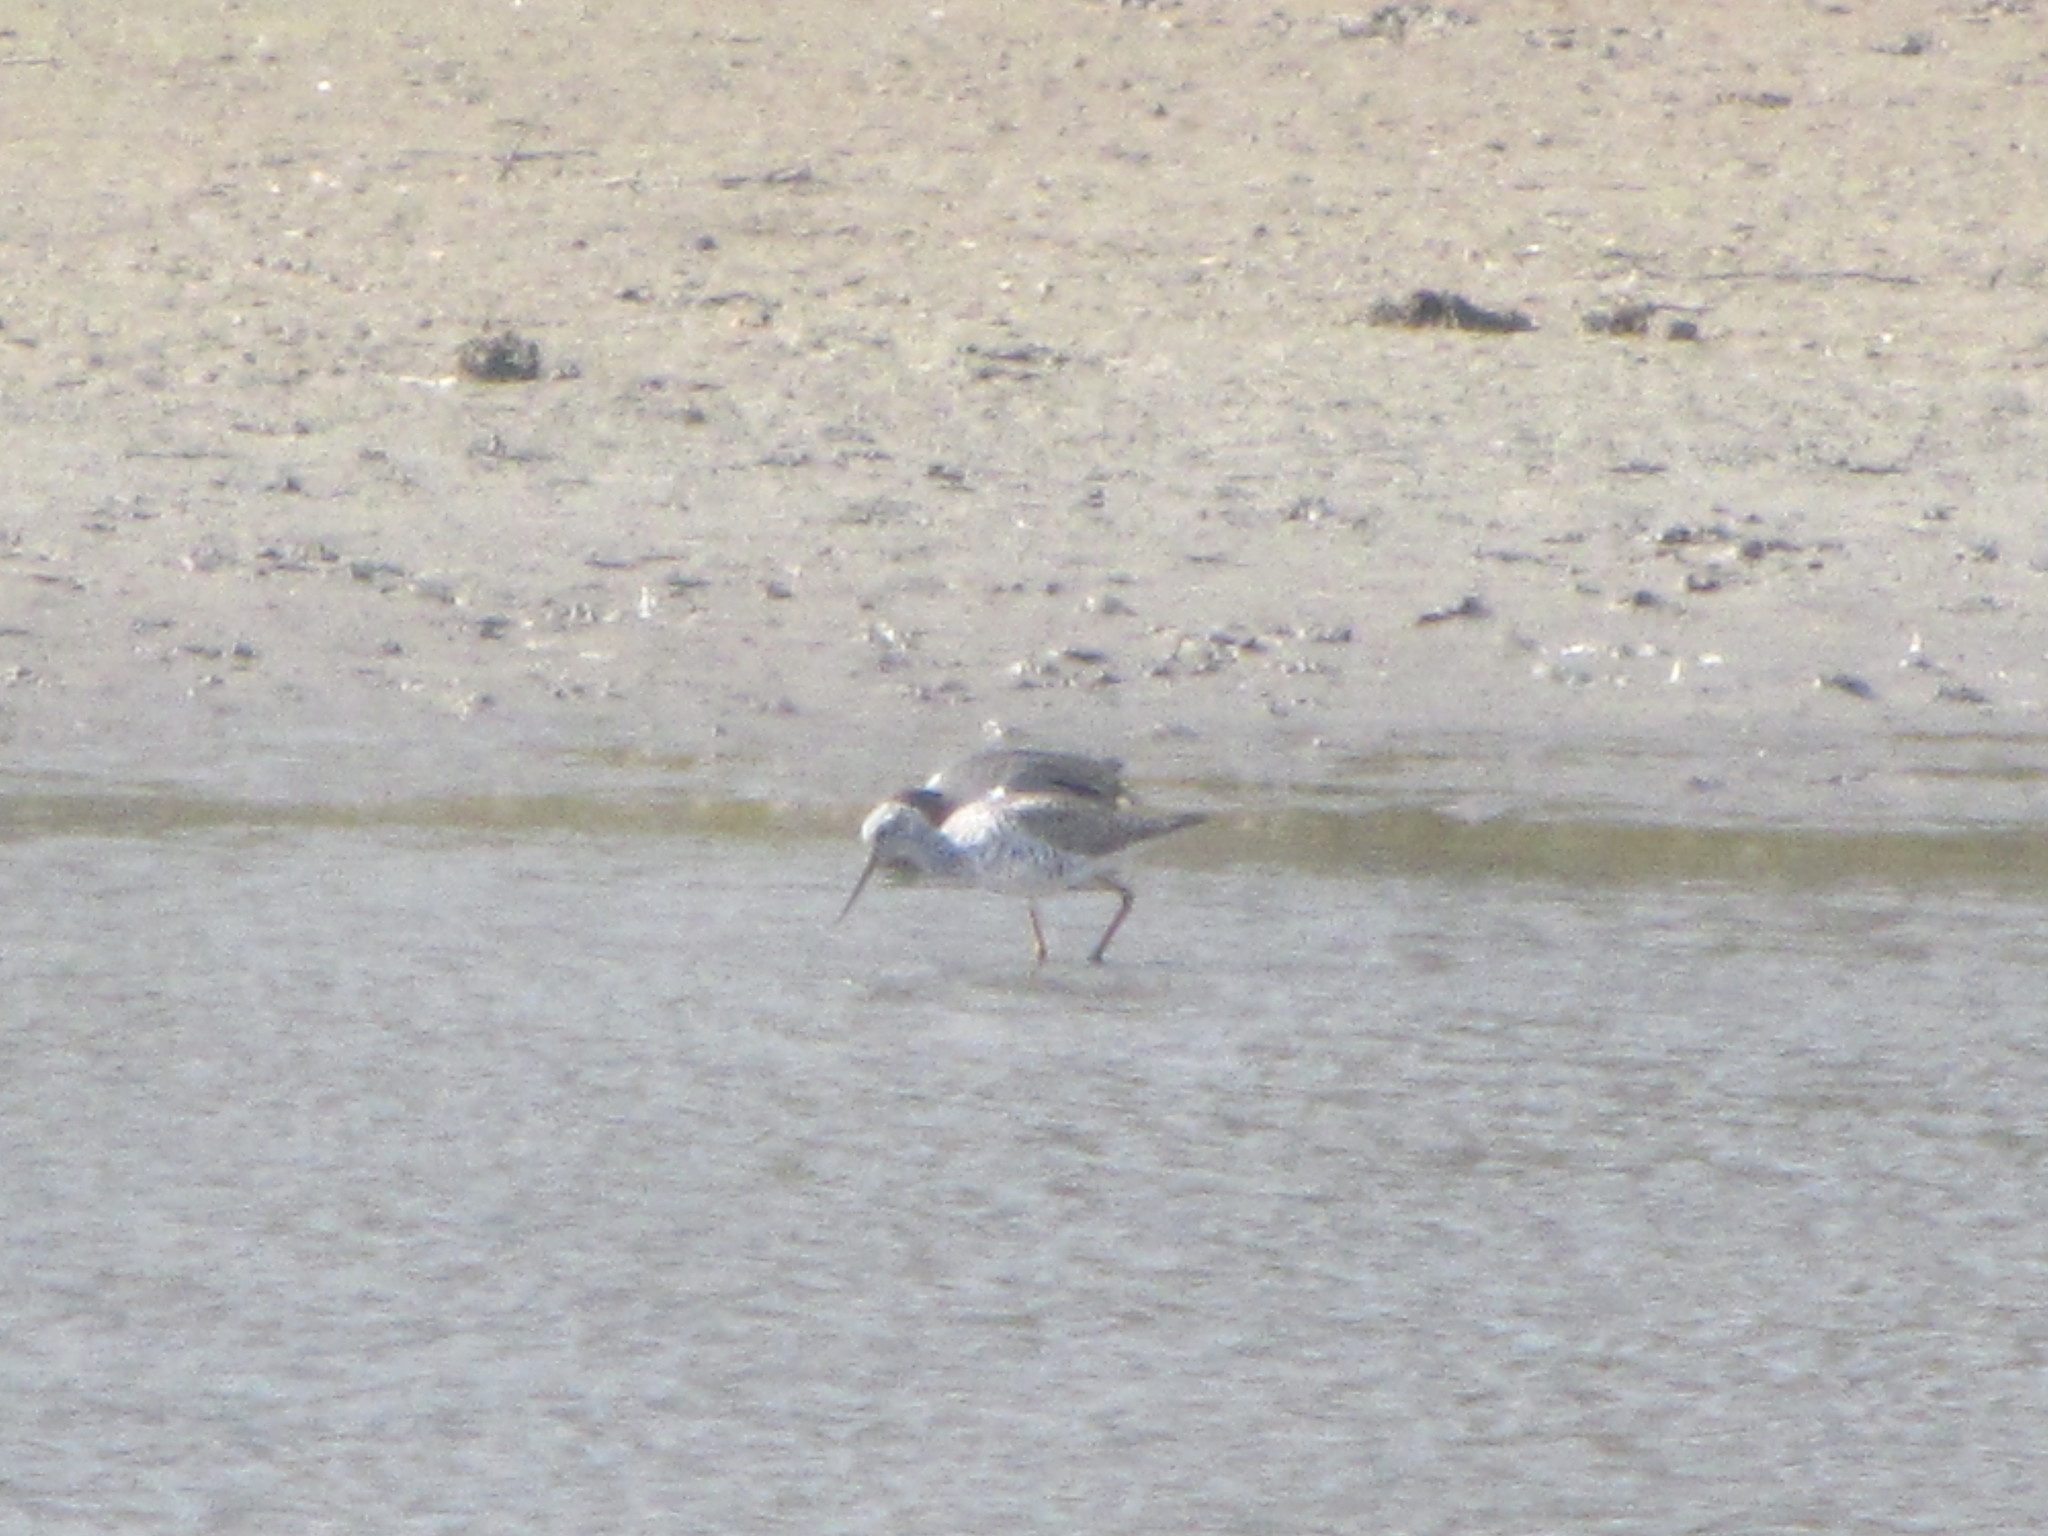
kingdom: Animalia
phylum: Chordata
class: Aves
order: Charadriiformes
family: Scolopacidae
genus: Tringa
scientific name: Tringa melanoleuca
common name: Greater yellowlegs
